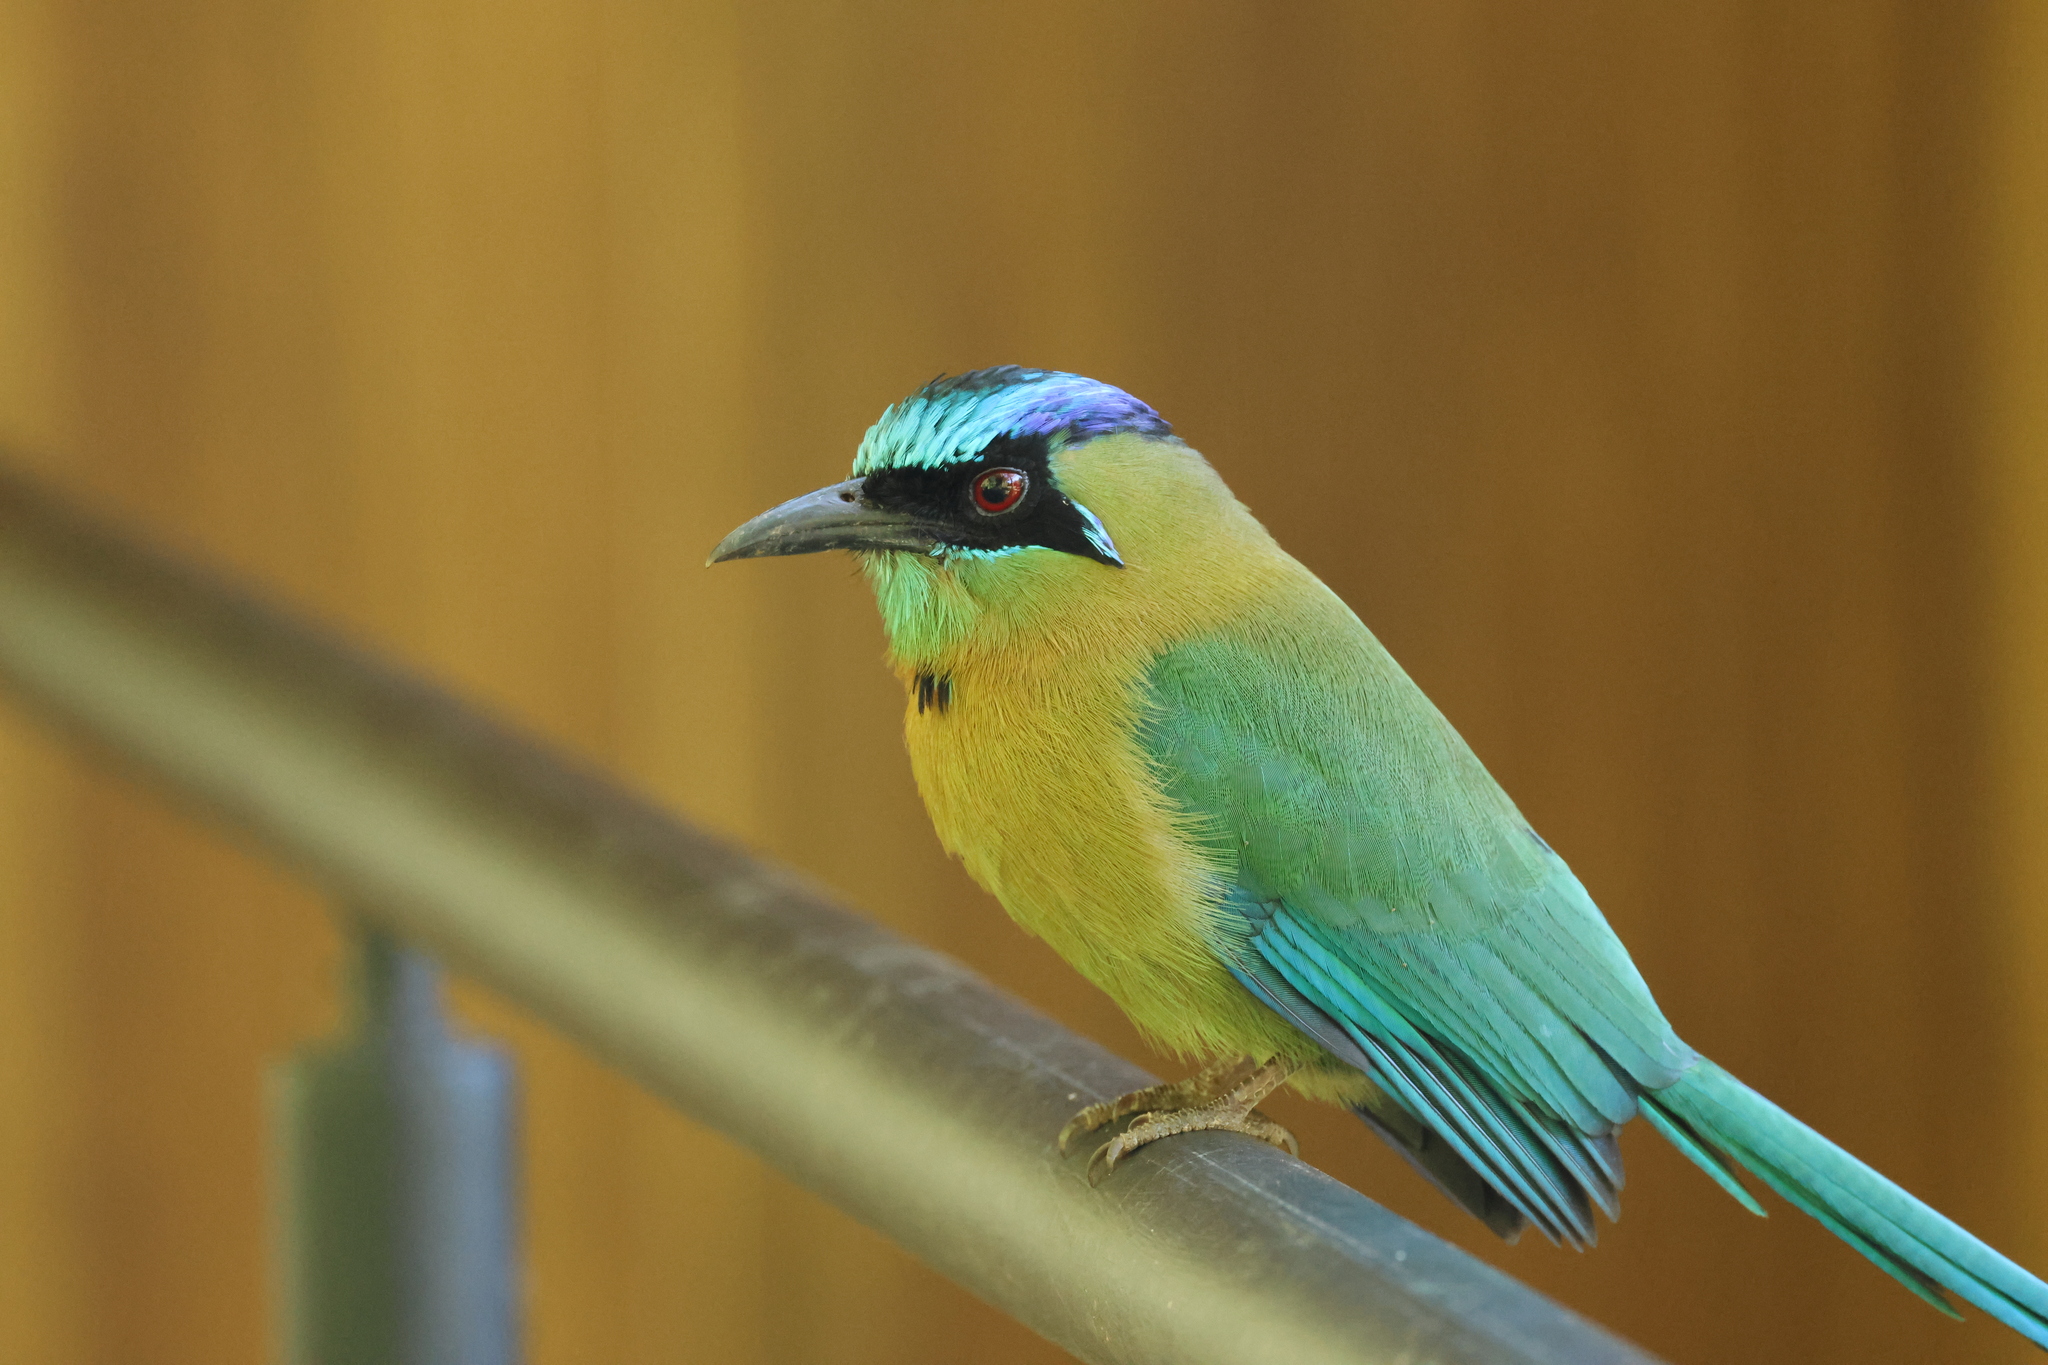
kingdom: Animalia
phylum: Chordata
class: Aves
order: Coraciiformes
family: Momotidae
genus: Momotus
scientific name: Momotus lessonii
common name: Lesson's motmot
